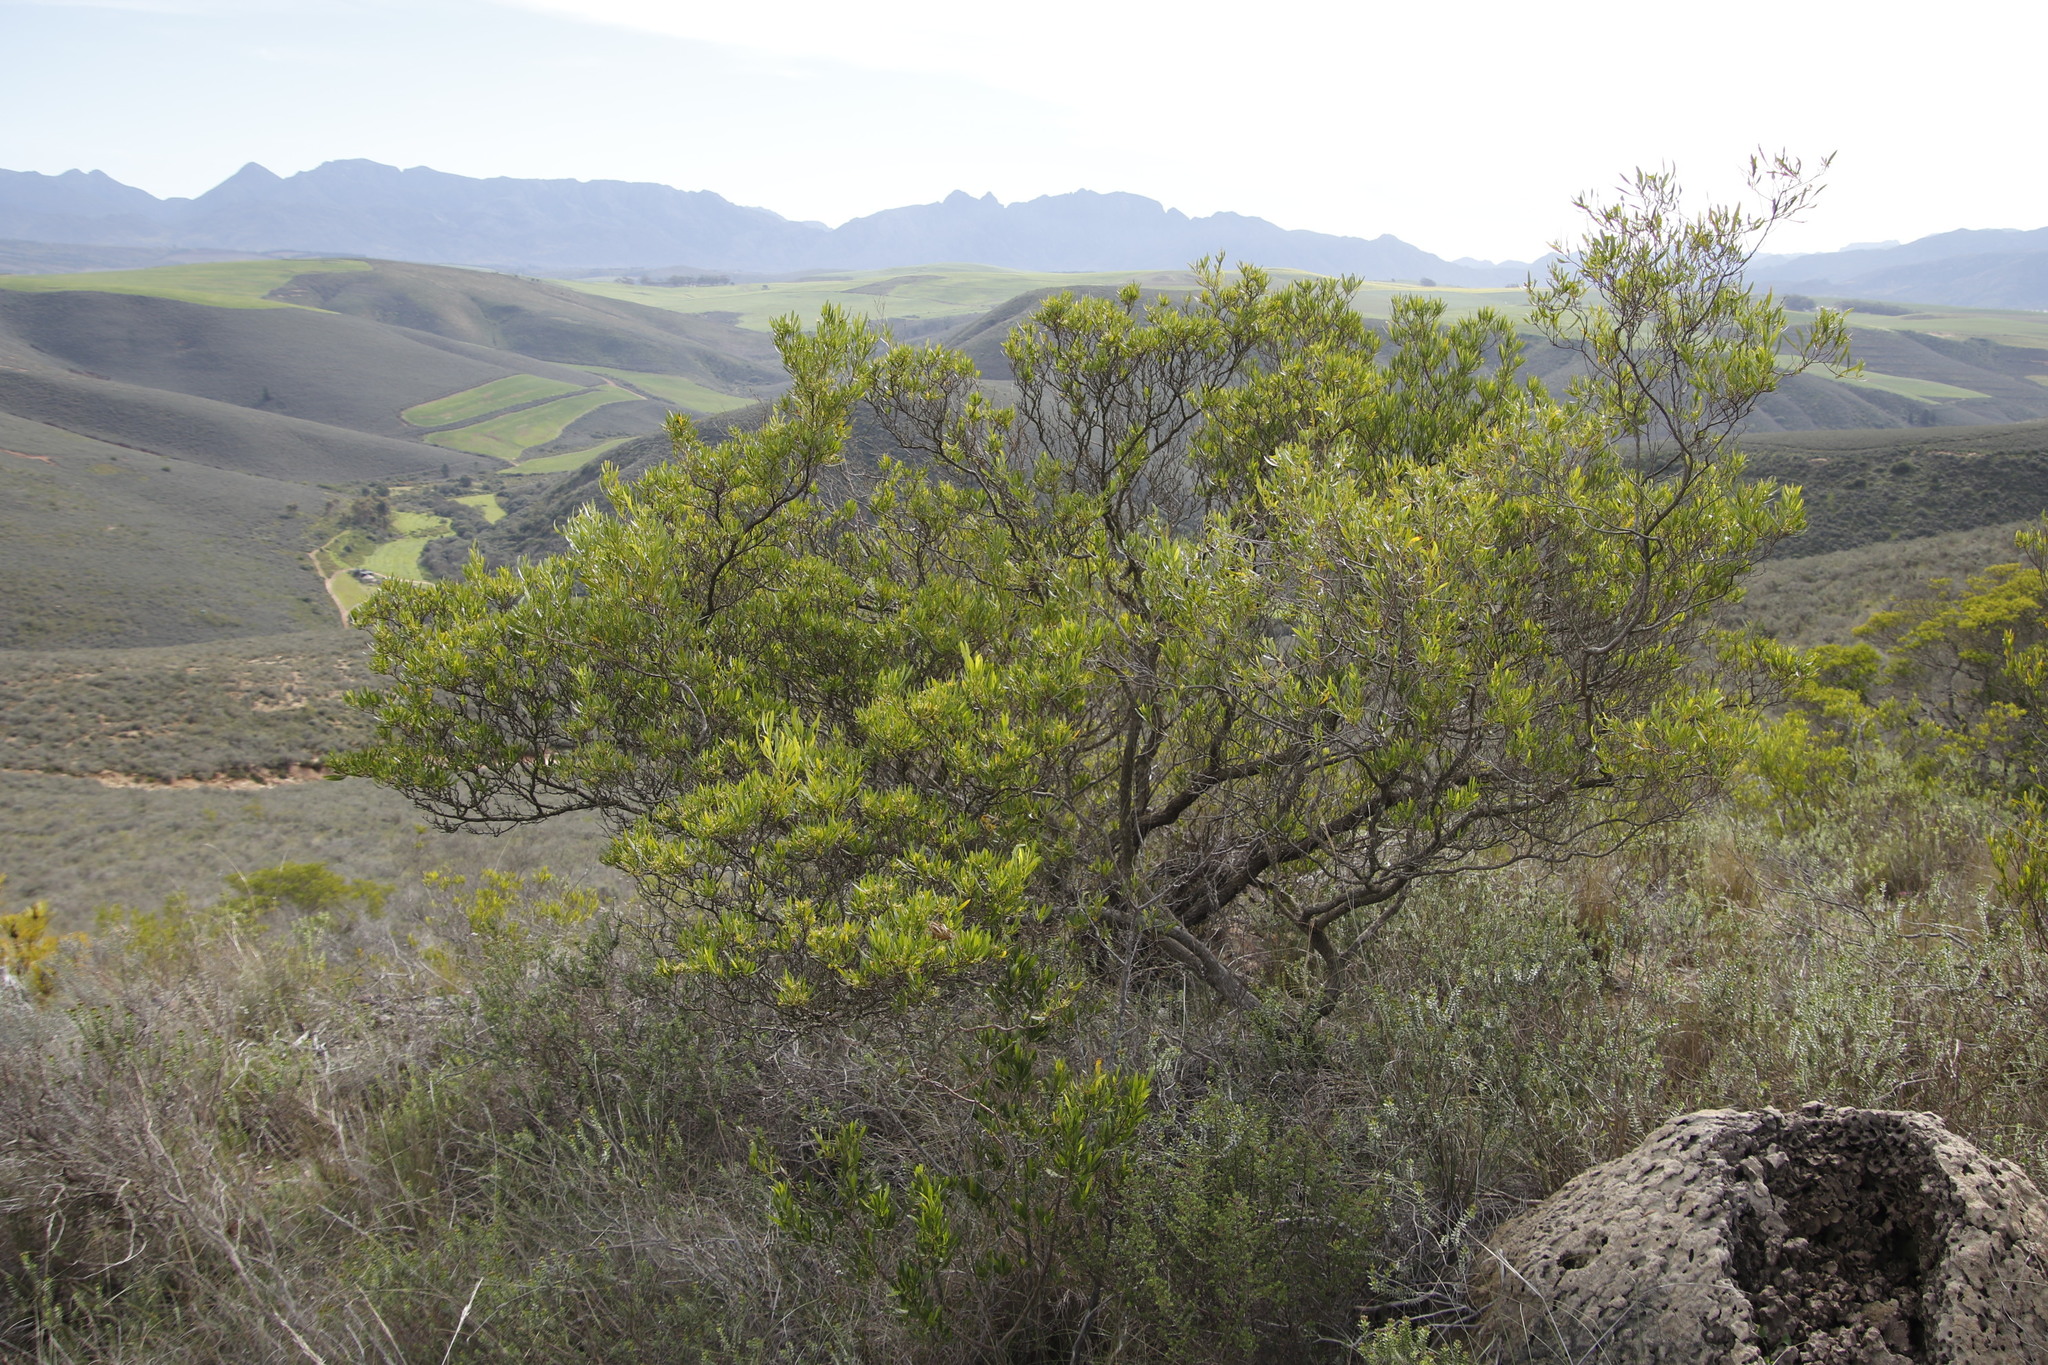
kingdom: Plantae
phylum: Tracheophyta
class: Magnoliopsida
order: Sapindales
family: Sapindaceae
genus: Dodonaea
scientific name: Dodonaea viscosa
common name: Hopbush
